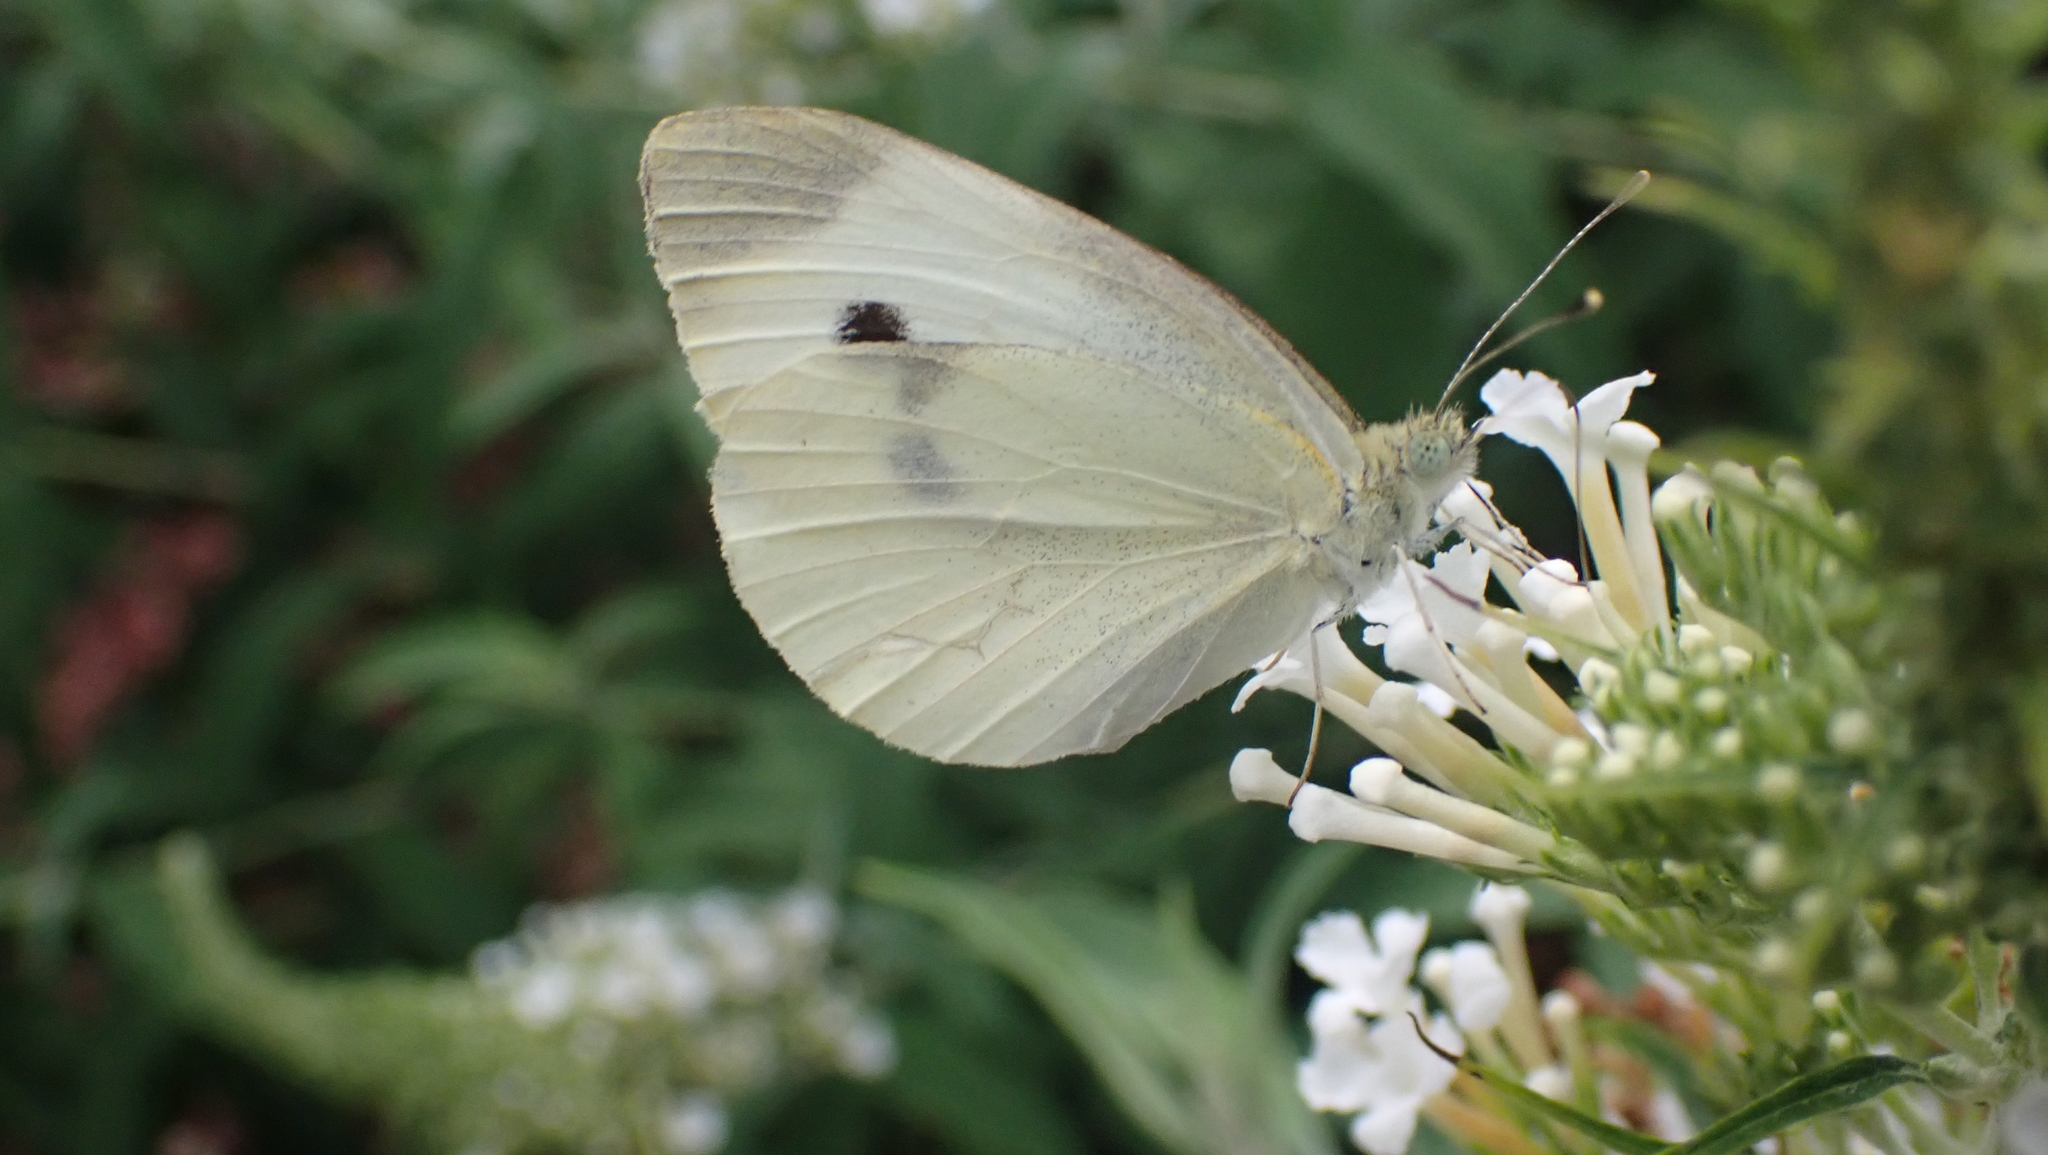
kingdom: Animalia
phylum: Arthropoda
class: Insecta
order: Lepidoptera
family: Pieridae
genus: Pieris
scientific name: Pieris rapae
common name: Small white
